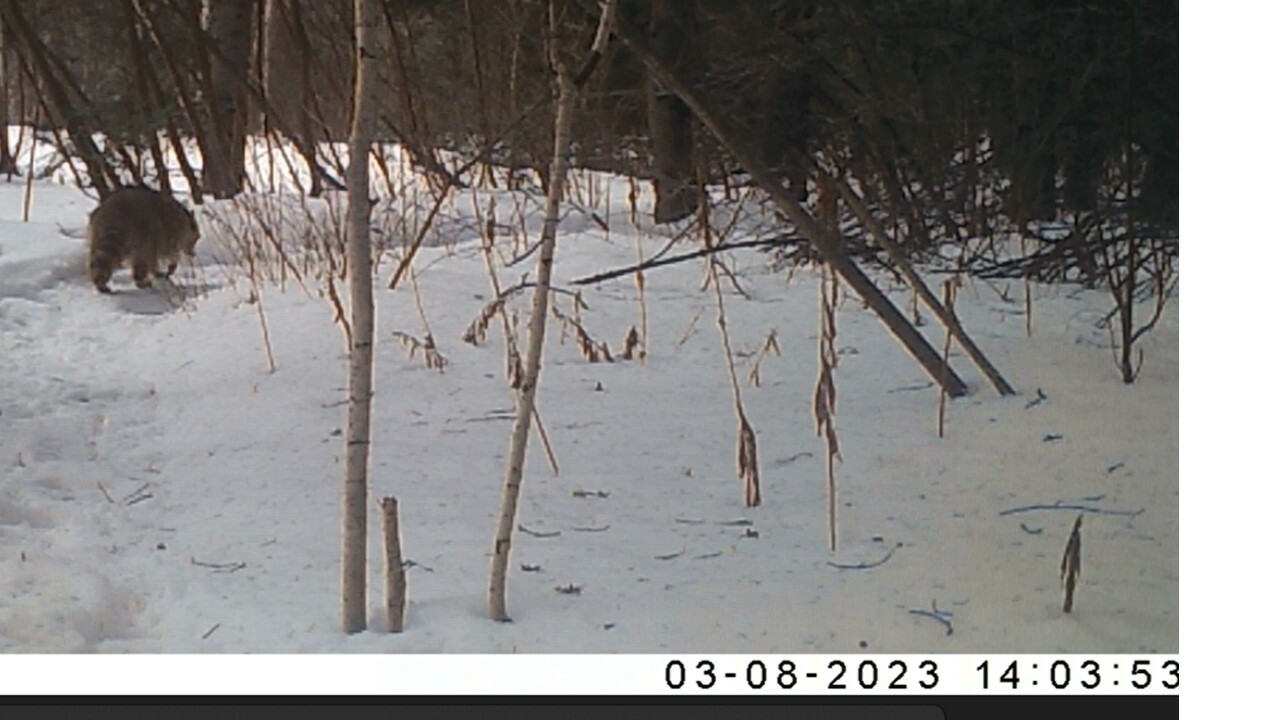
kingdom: Animalia
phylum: Chordata
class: Mammalia
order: Carnivora
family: Procyonidae
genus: Procyon
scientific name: Procyon lotor
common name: Raccoon
